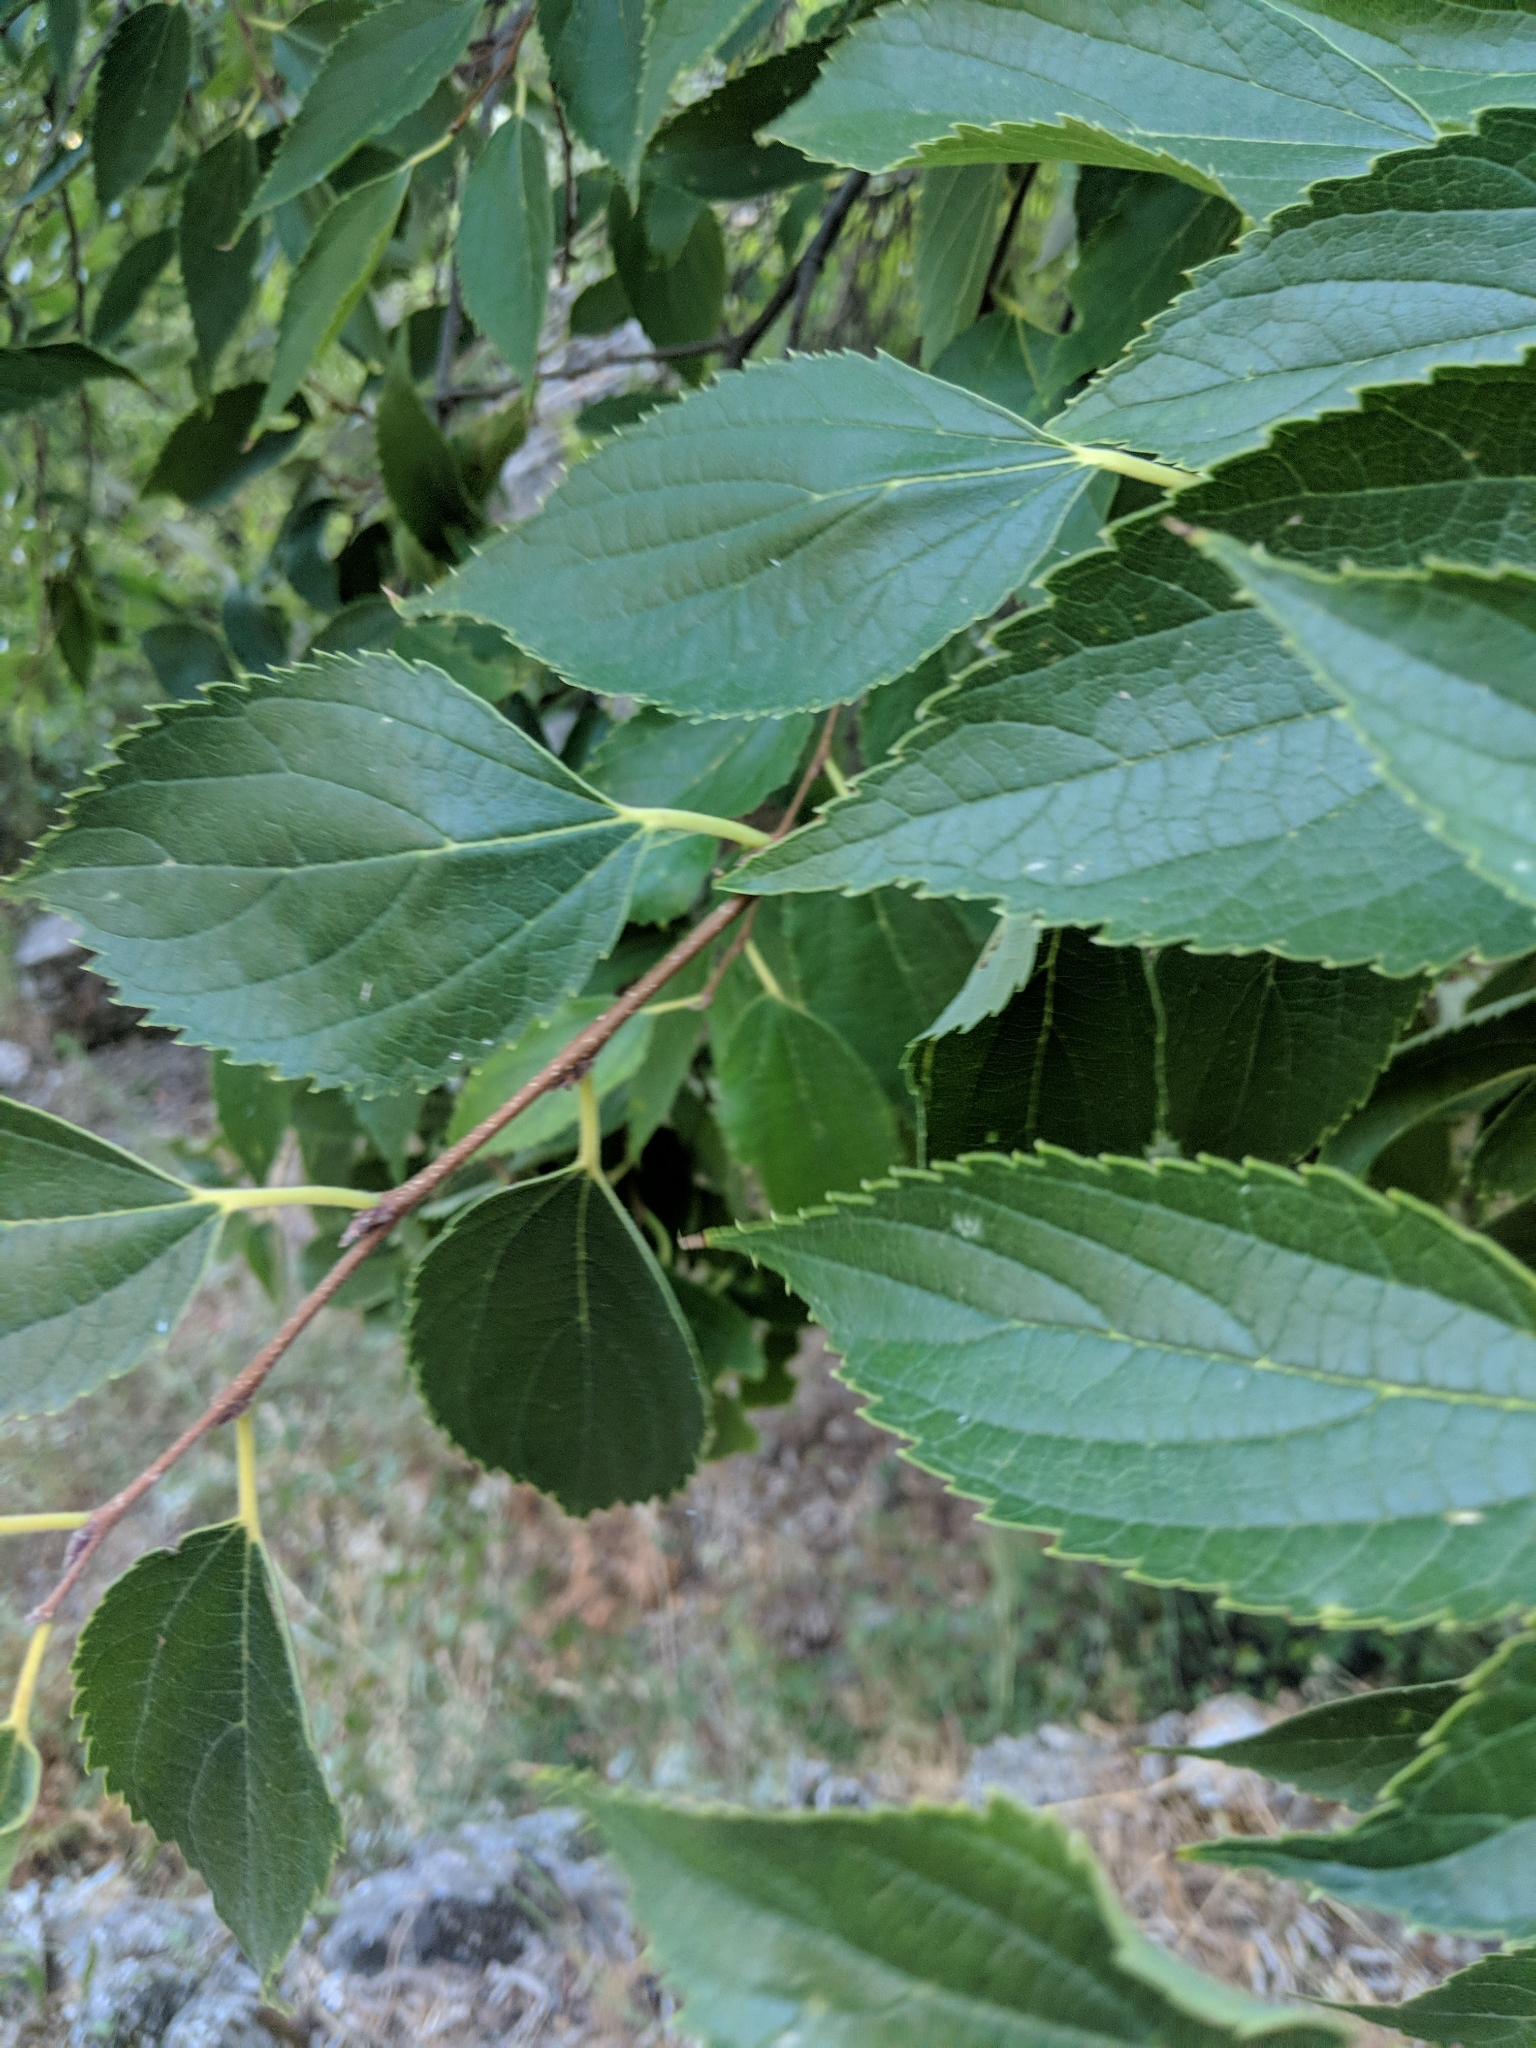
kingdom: Plantae
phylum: Tracheophyta
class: Magnoliopsida
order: Rosales
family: Cannabaceae
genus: Celtis
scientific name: Celtis australis
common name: European hackberry
